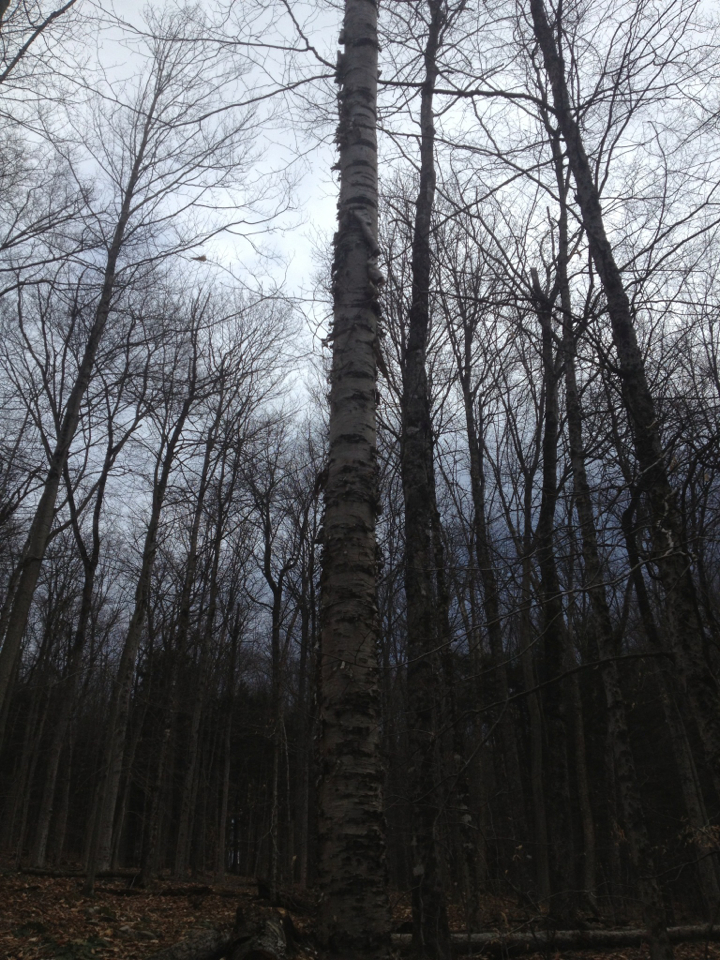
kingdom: Plantae
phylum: Tracheophyta
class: Magnoliopsida
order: Fagales
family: Betulaceae
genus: Betula
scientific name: Betula papyrifera
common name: Paper birch
